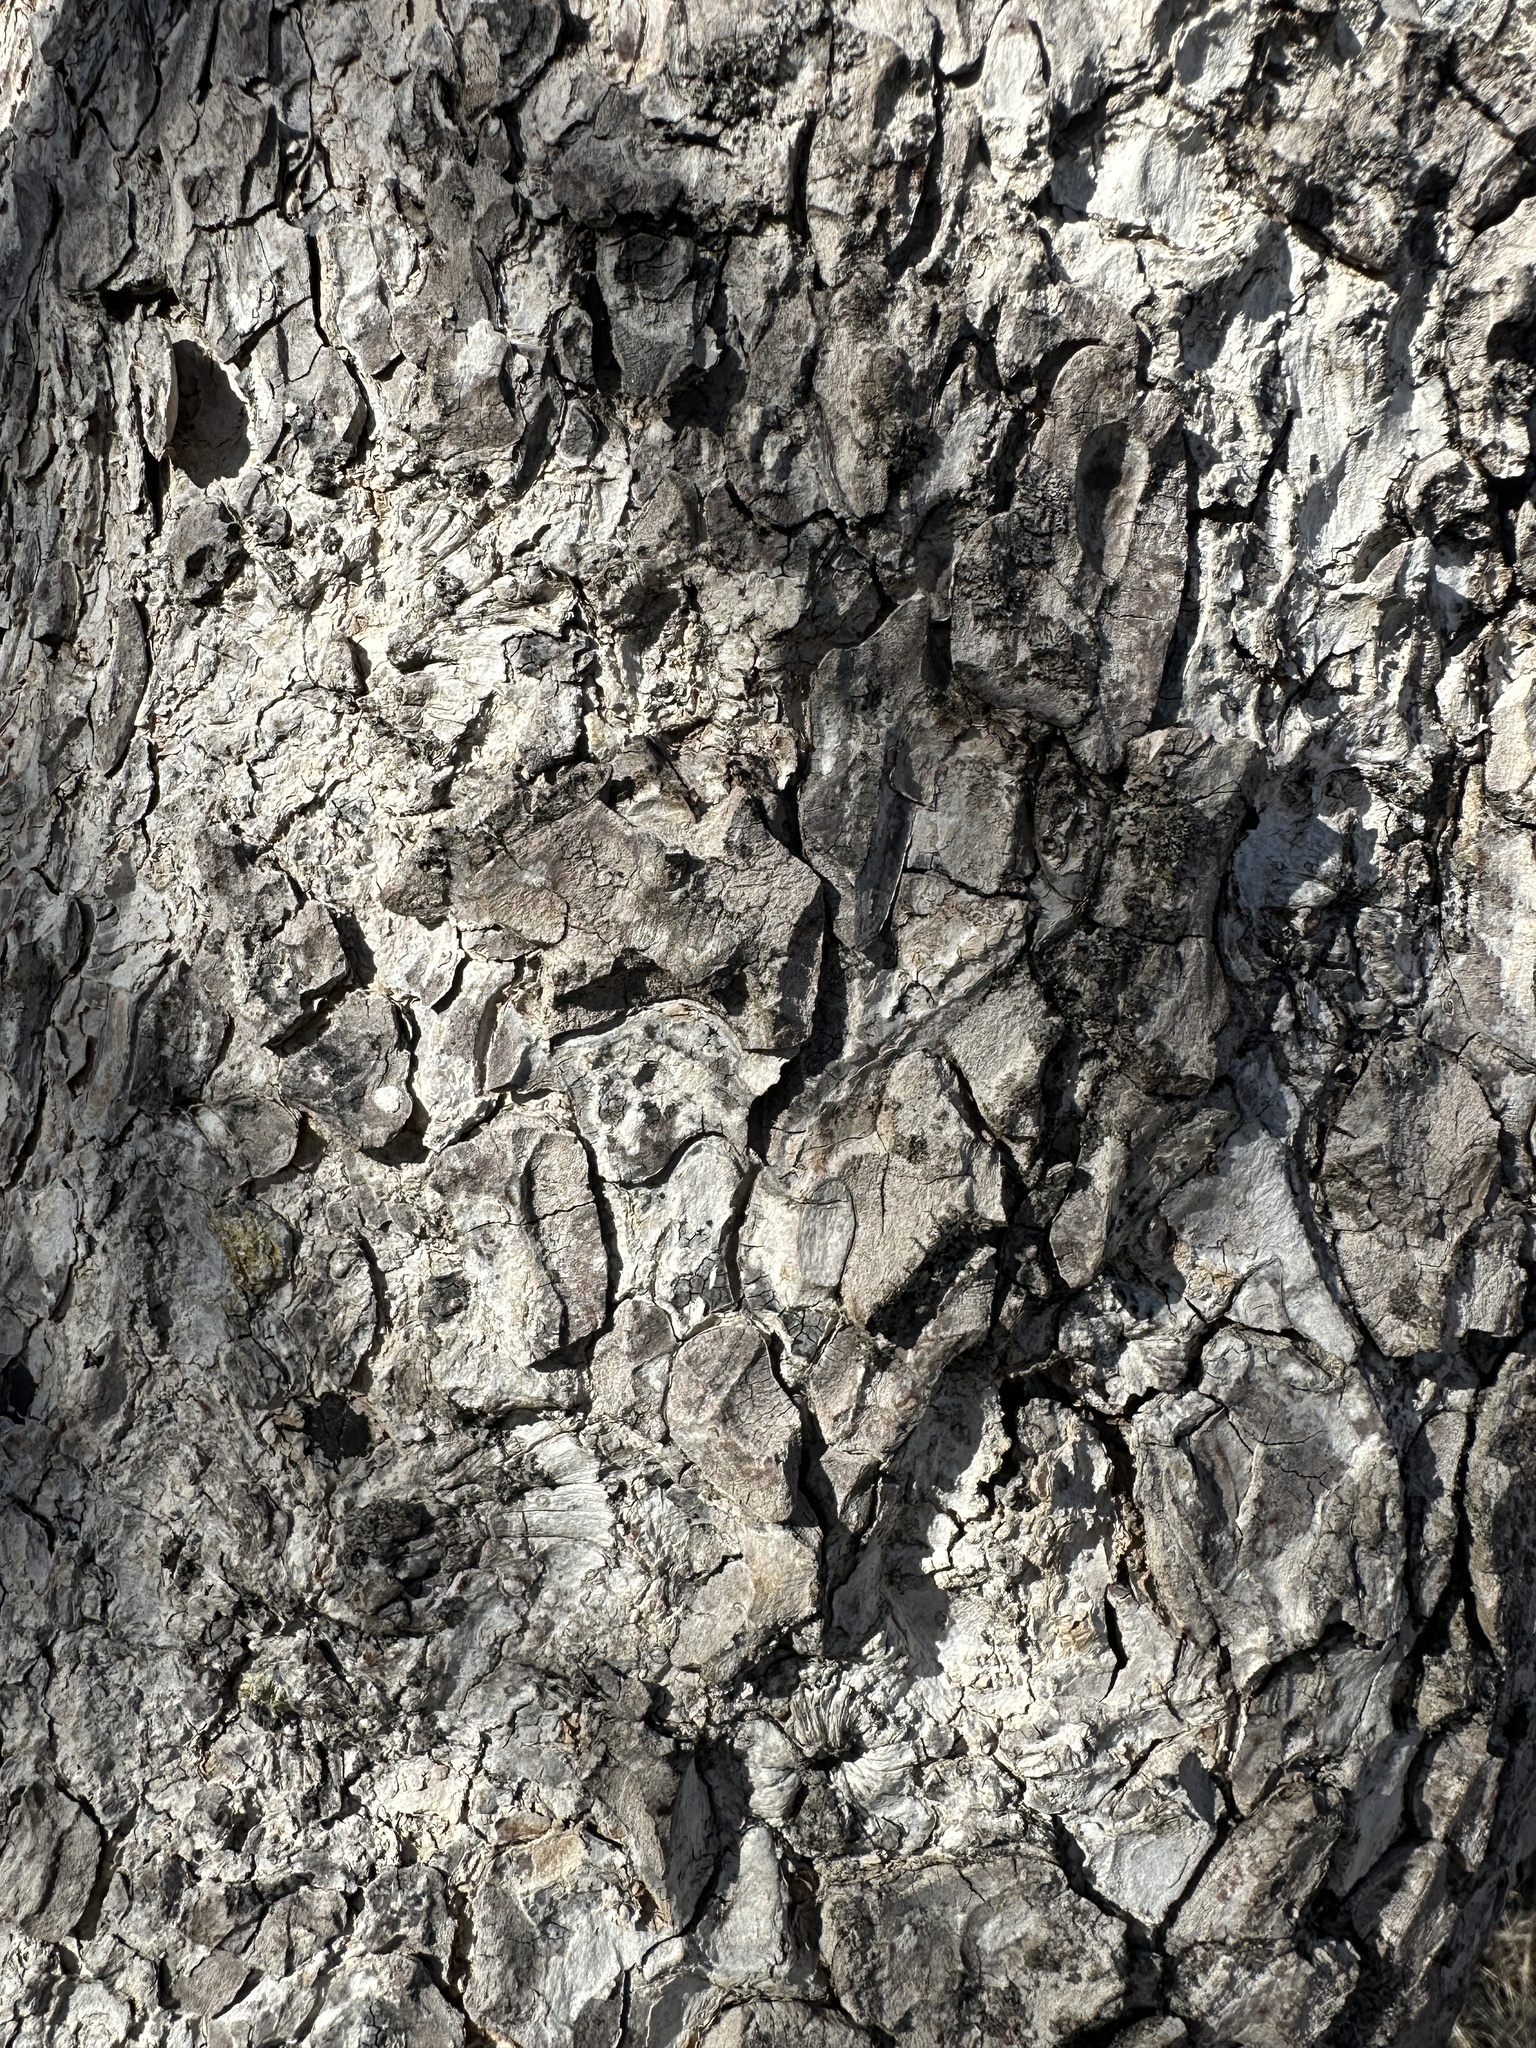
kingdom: Plantae
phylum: Tracheophyta
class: Magnoliopsida
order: Sapindales
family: Sapindaceae
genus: Aesculus
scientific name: Aesculus californica
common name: California buckeye
